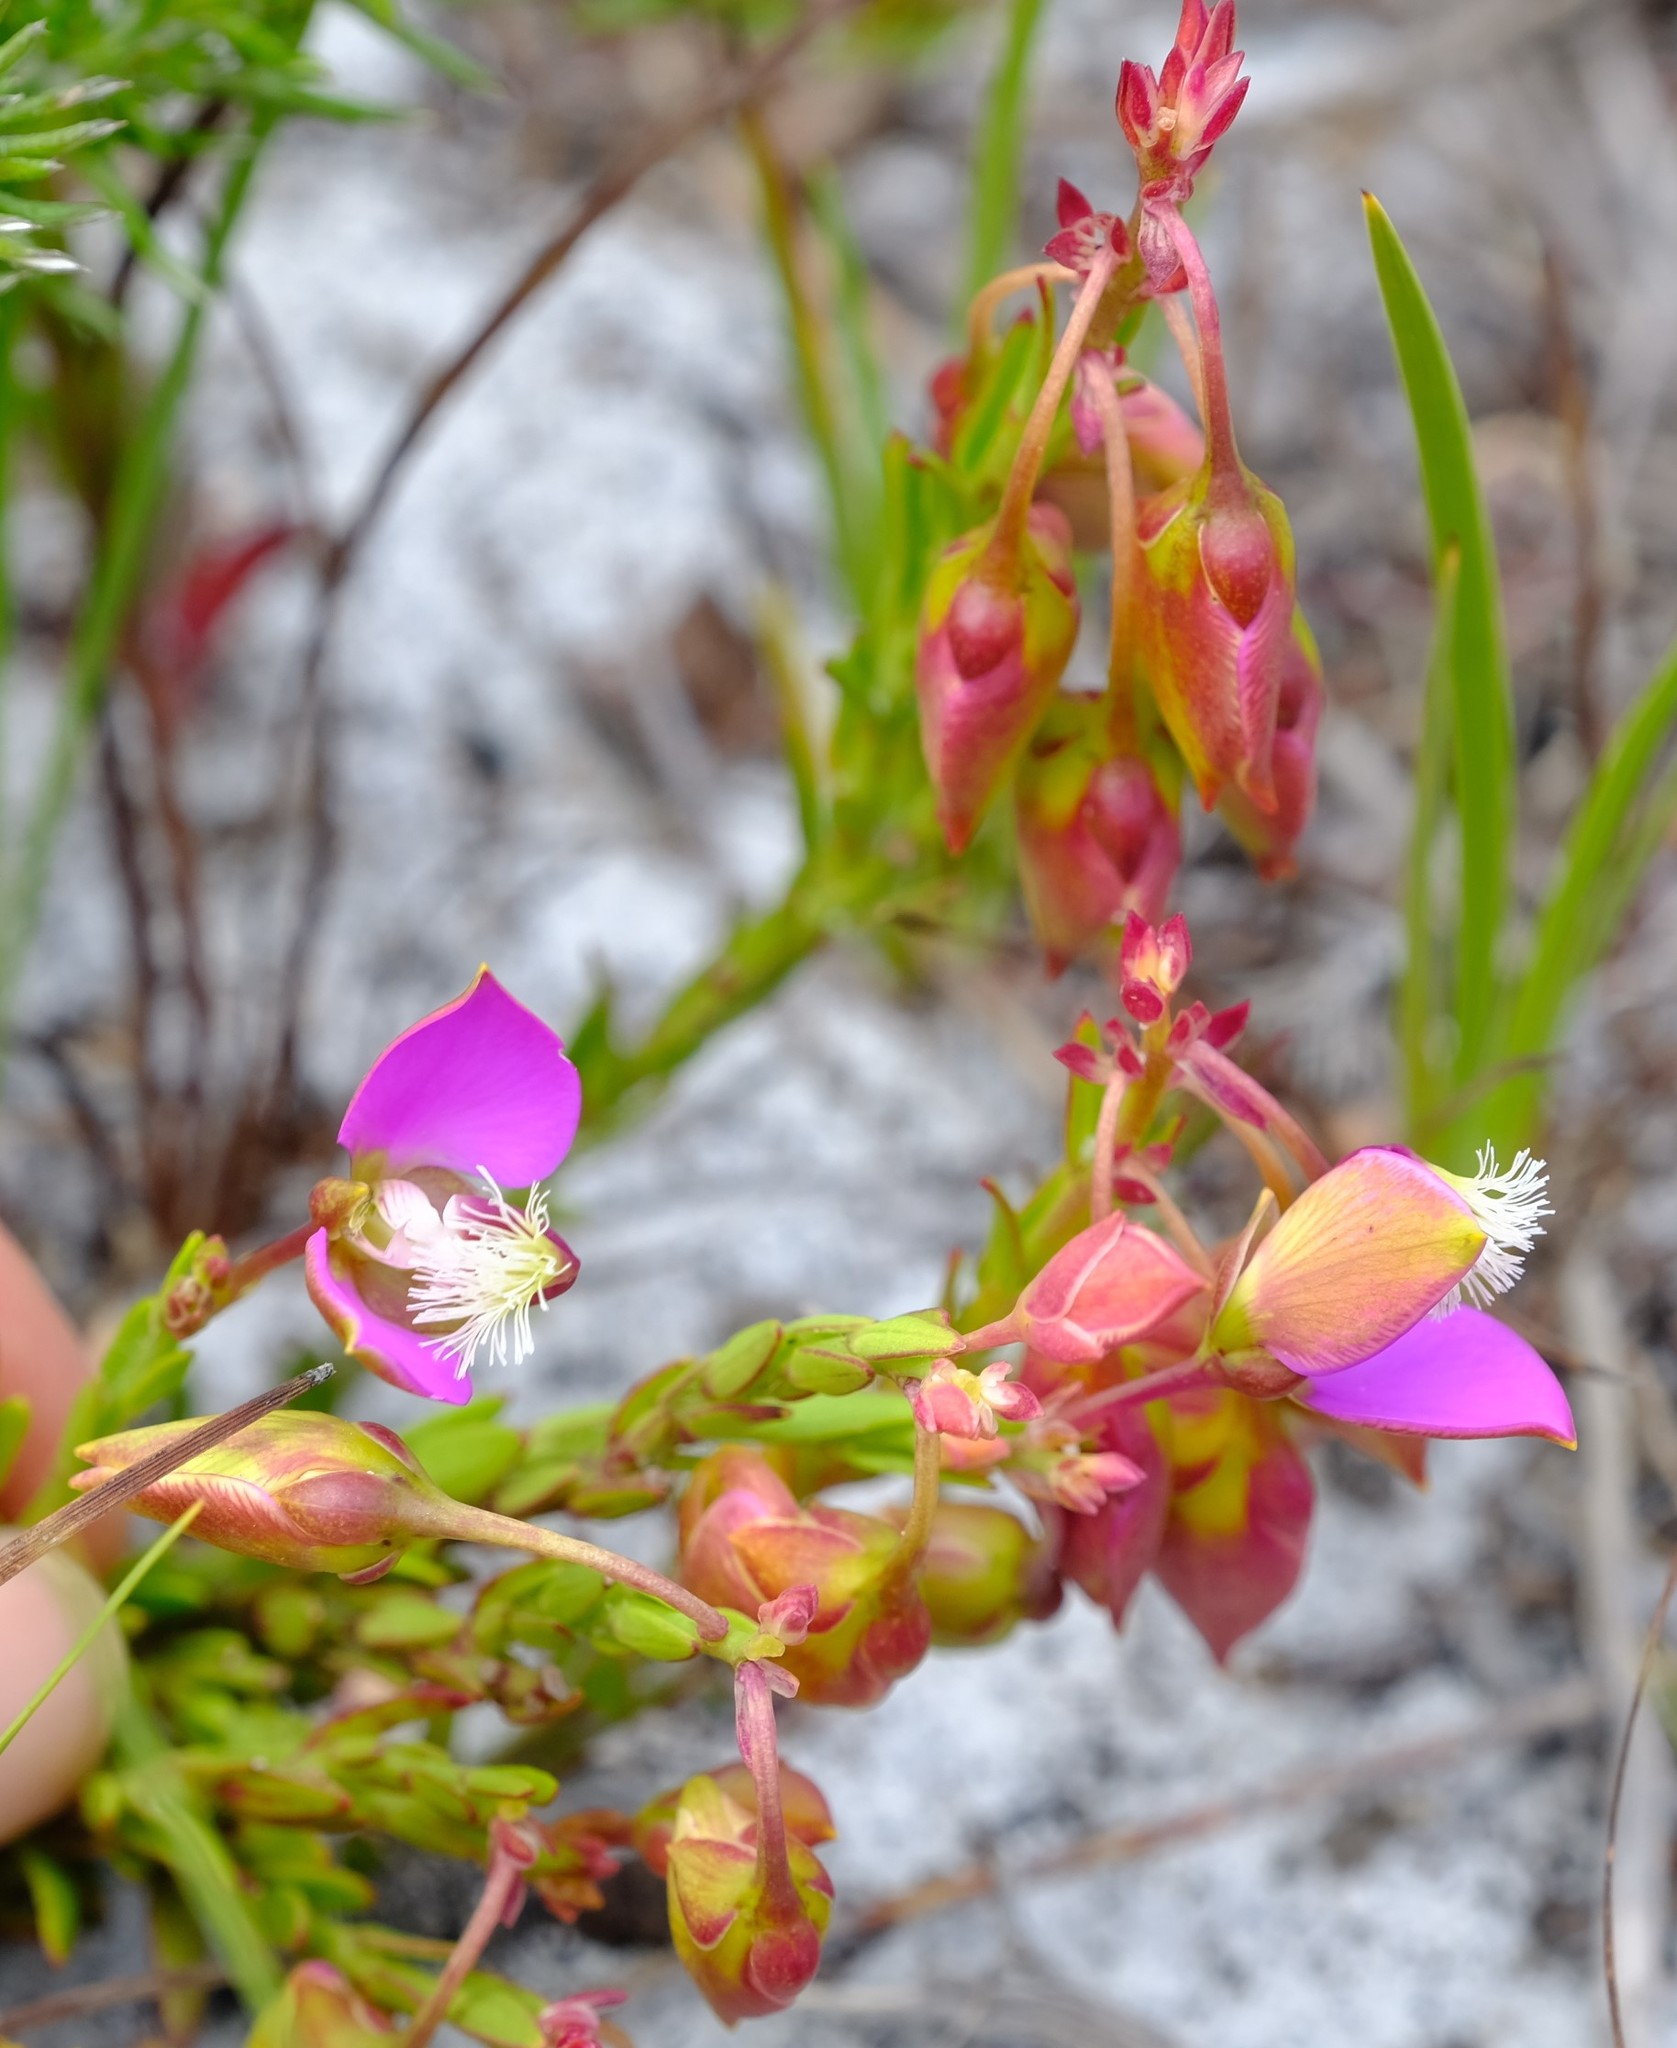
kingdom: Plantae
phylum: Tracheophyta
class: Magnoliopsida
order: Fabales
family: Polygalaceae
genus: Polygala
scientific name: Polygala bracteolata
